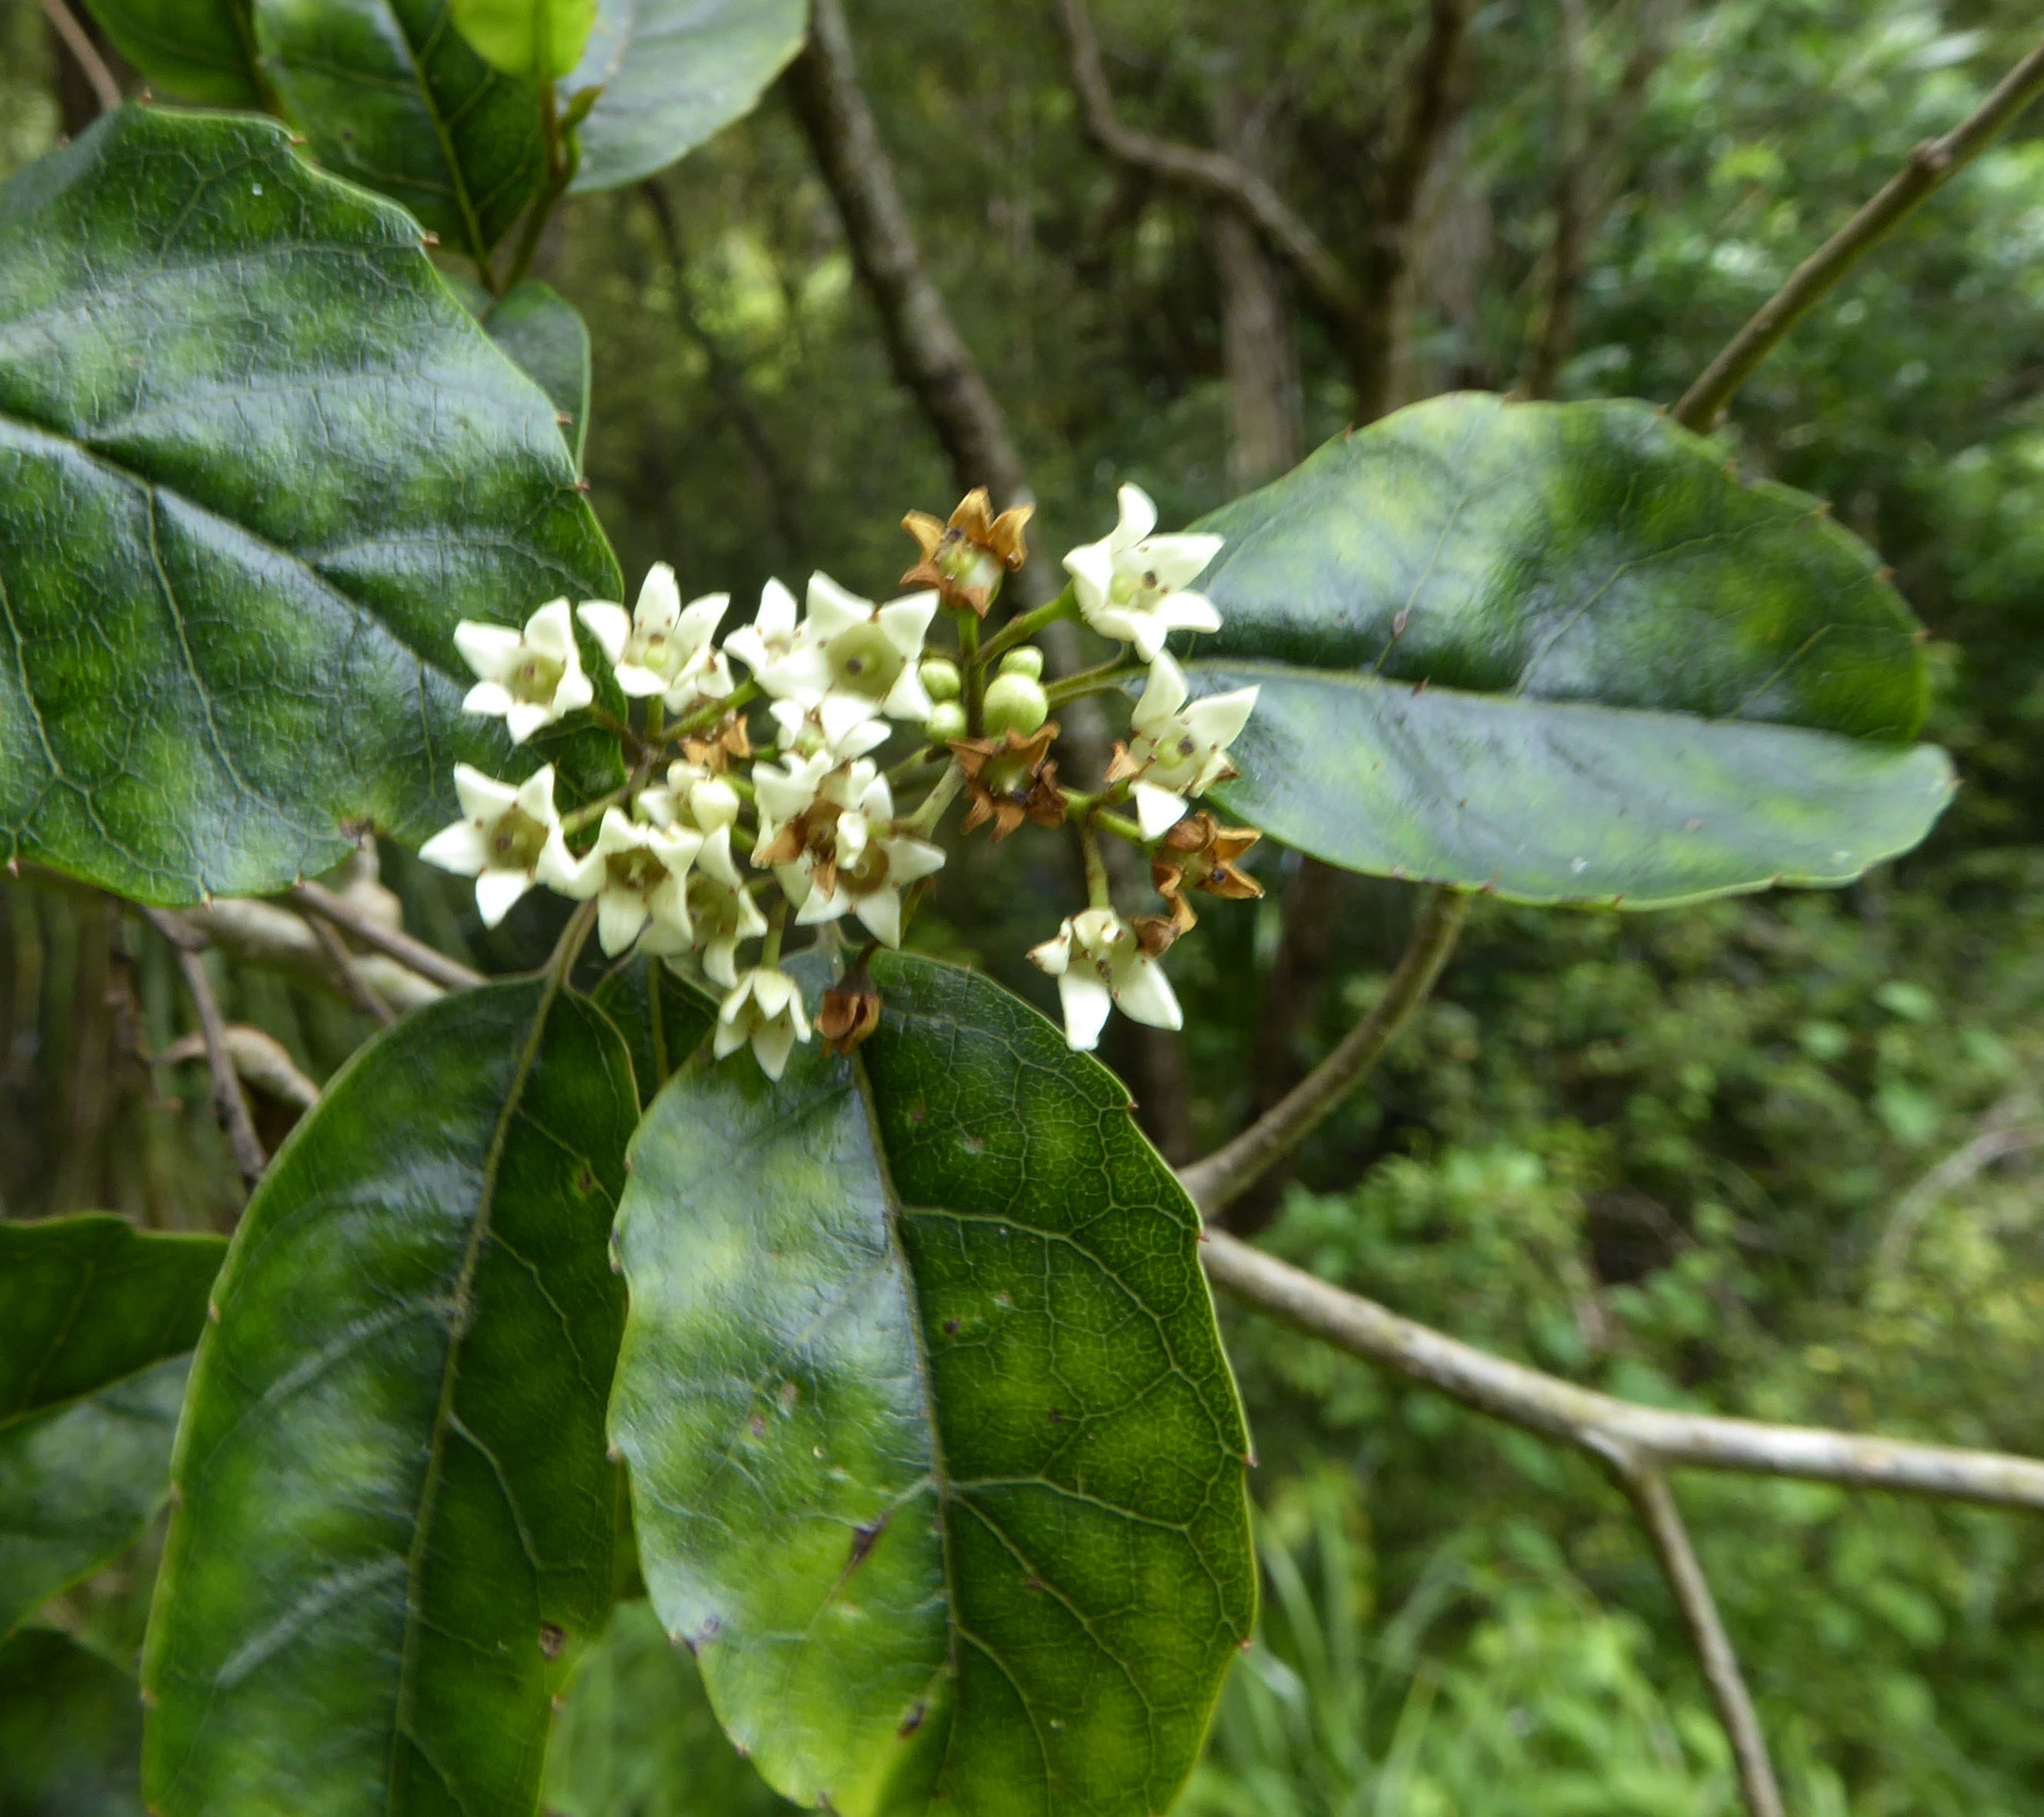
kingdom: Plantae
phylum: Tracheophyta
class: Magnoliopsida
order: Asterales
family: Rousseaceae
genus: Carpodetus
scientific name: Carpodetus serratus
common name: White mapau
